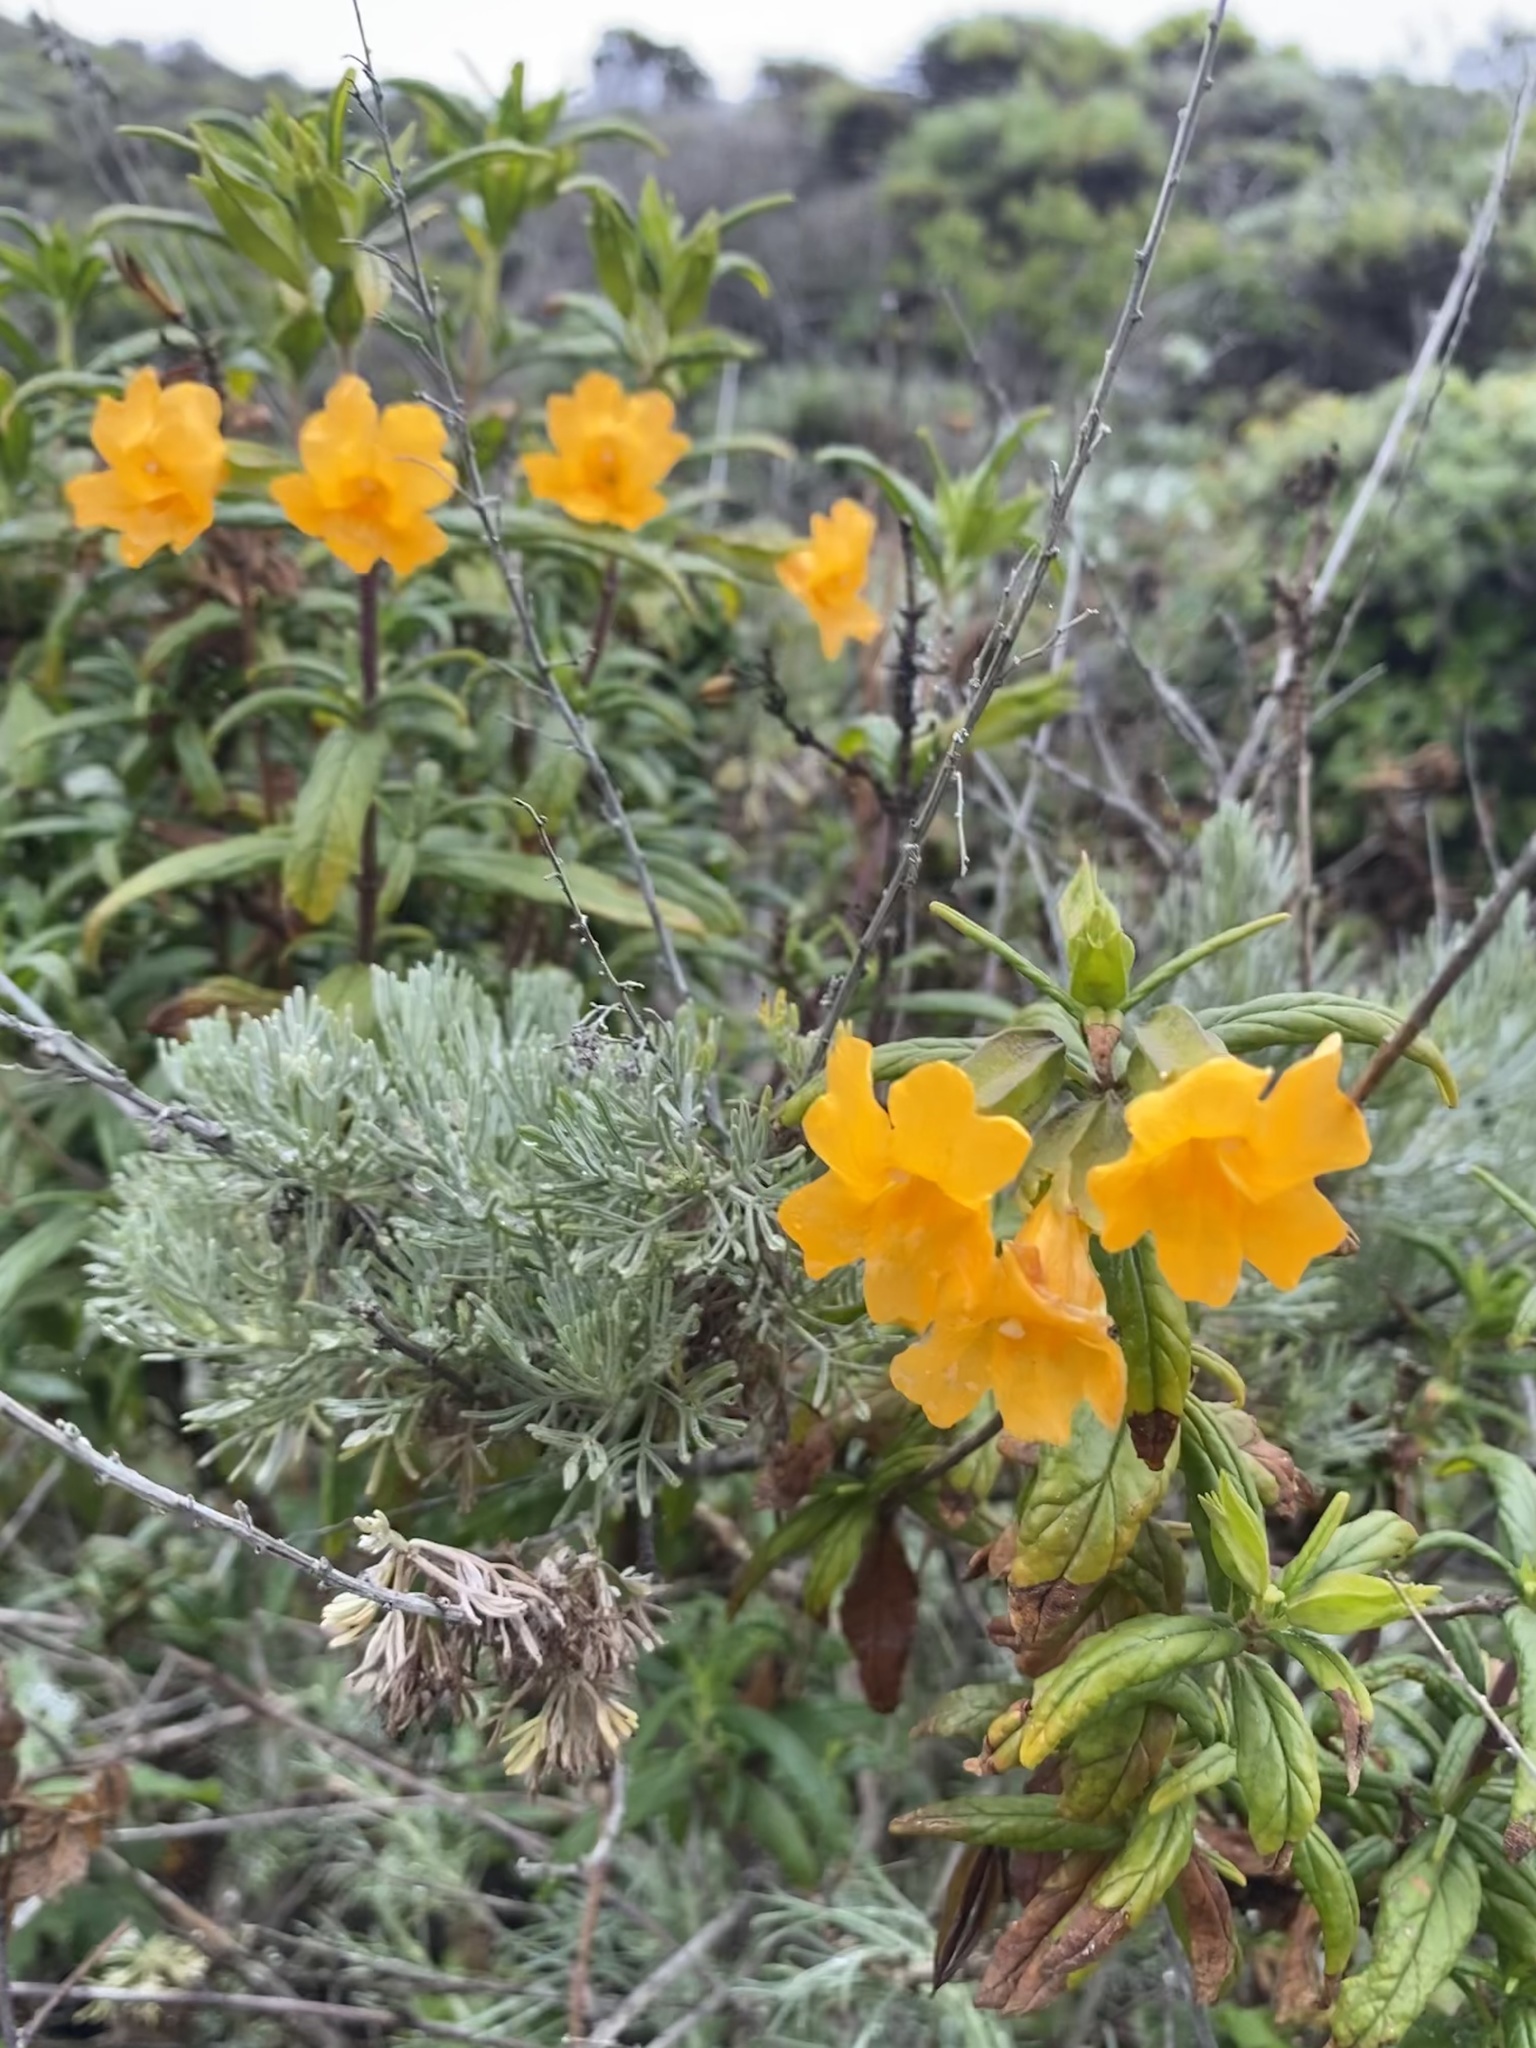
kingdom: Plantae
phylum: Tracheophyta
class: Magnoliopsida
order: Lamiales
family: Phrymaceae
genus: Diplacus
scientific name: Diplacus aurantiacus
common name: Bush monkey-flower
